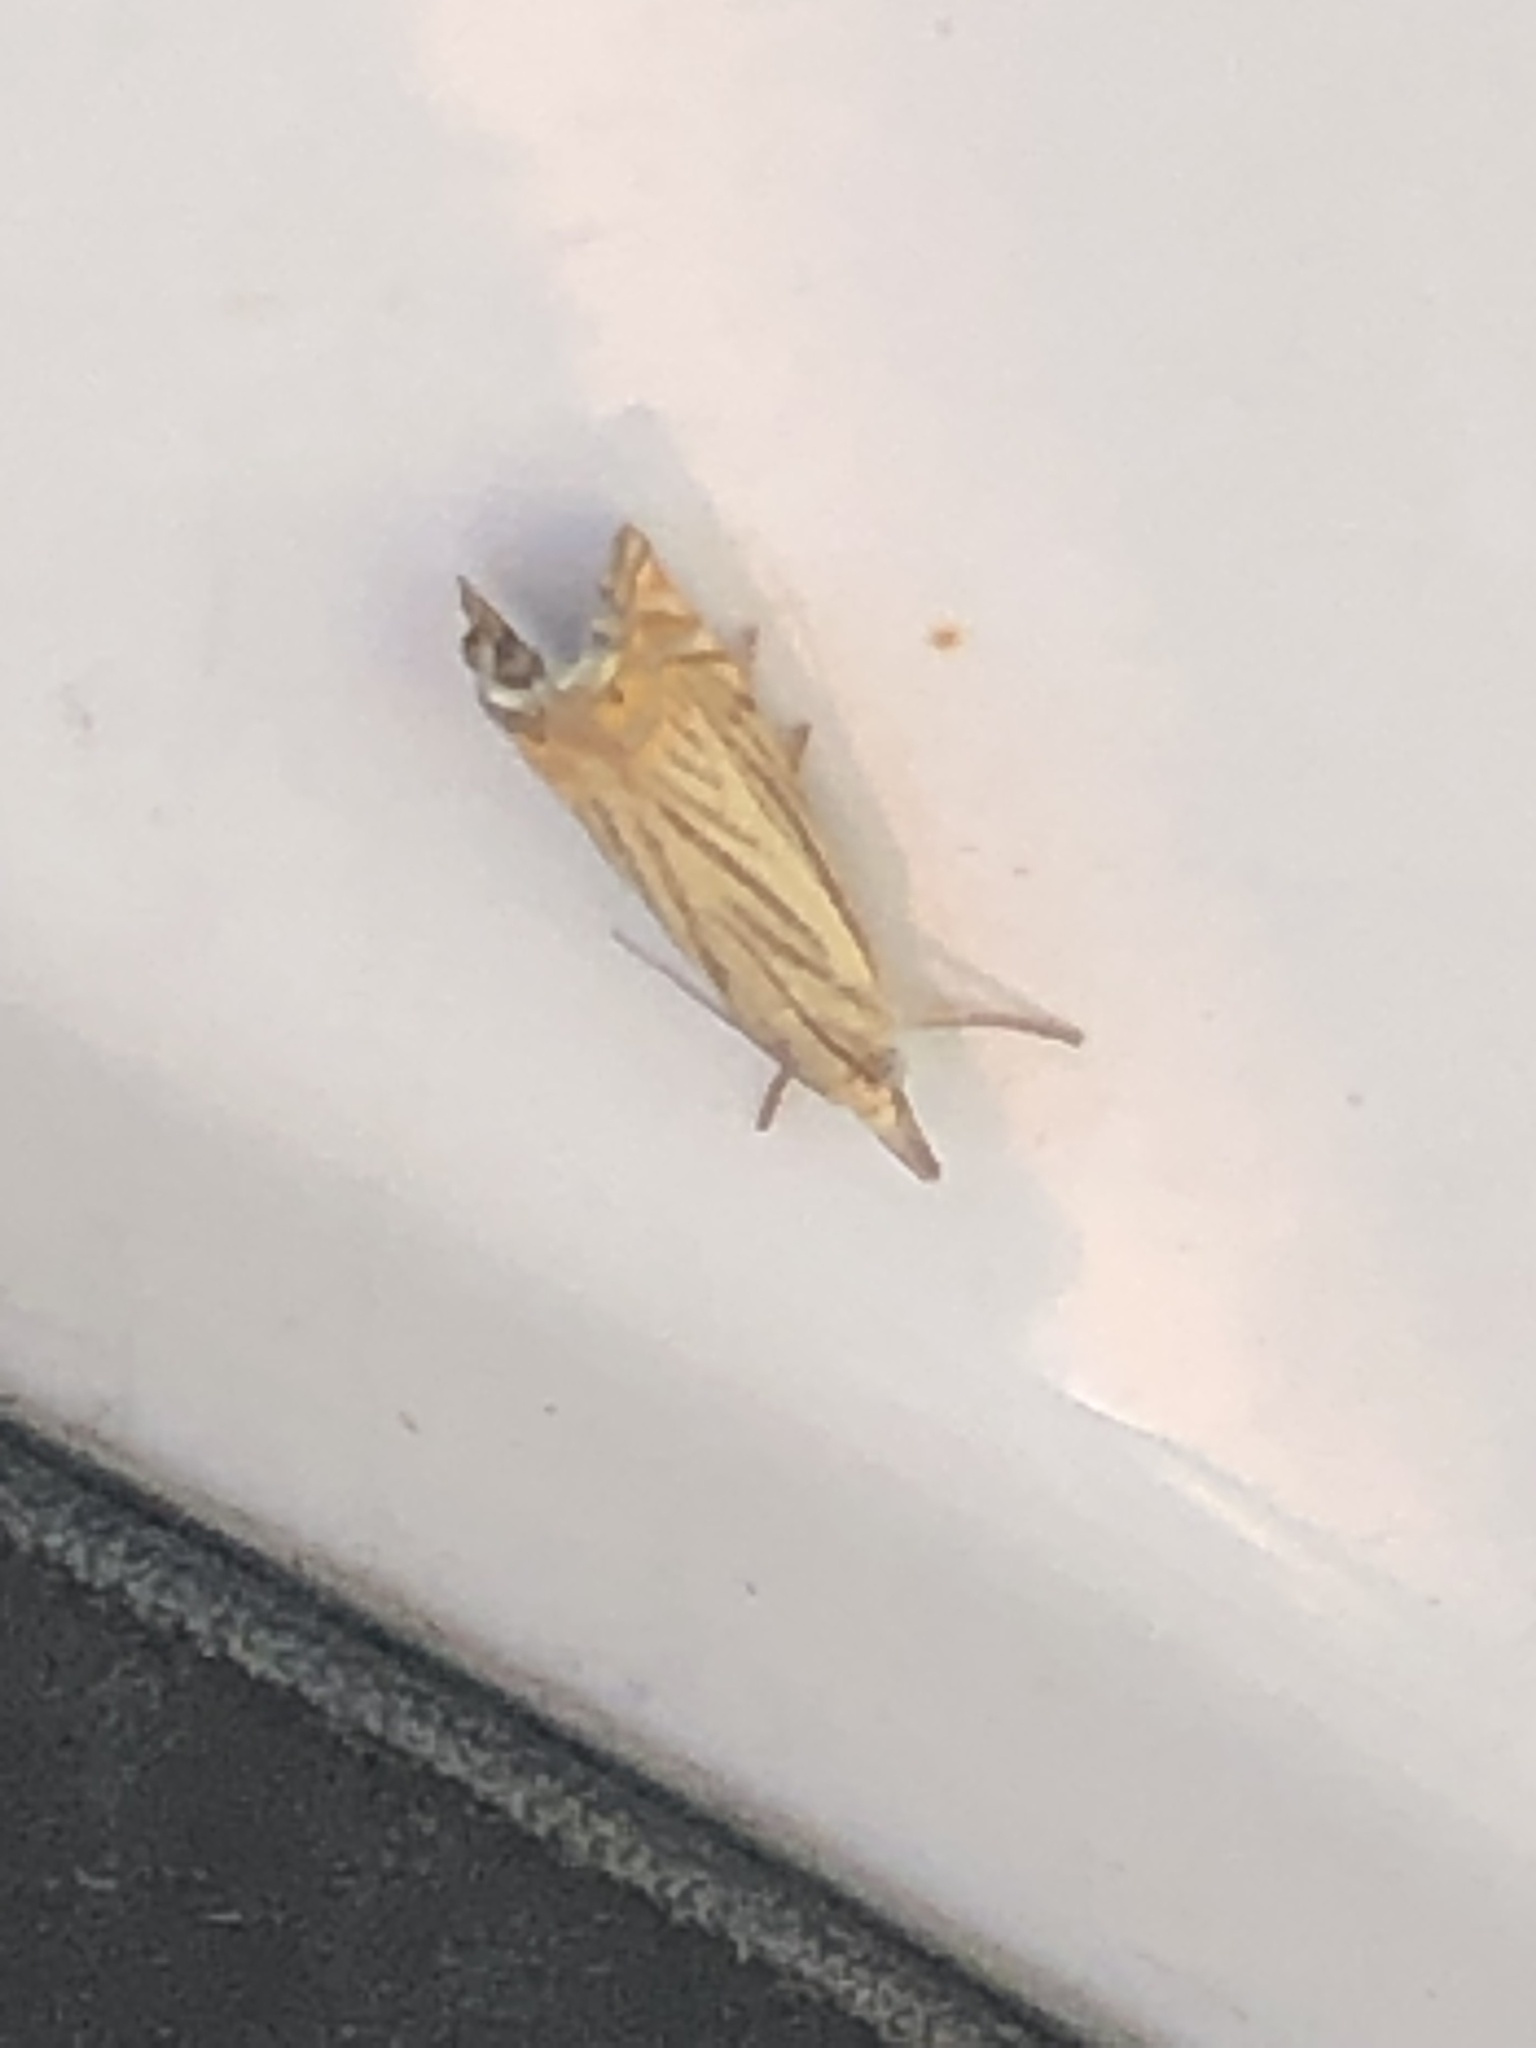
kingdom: Animalia
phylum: Arthropoda
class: Insecta
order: Lepidoptera
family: Crambidae
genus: Chrysoteuchia
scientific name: Chrysoteuchia topiarius
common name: Topiary grass-veneer
